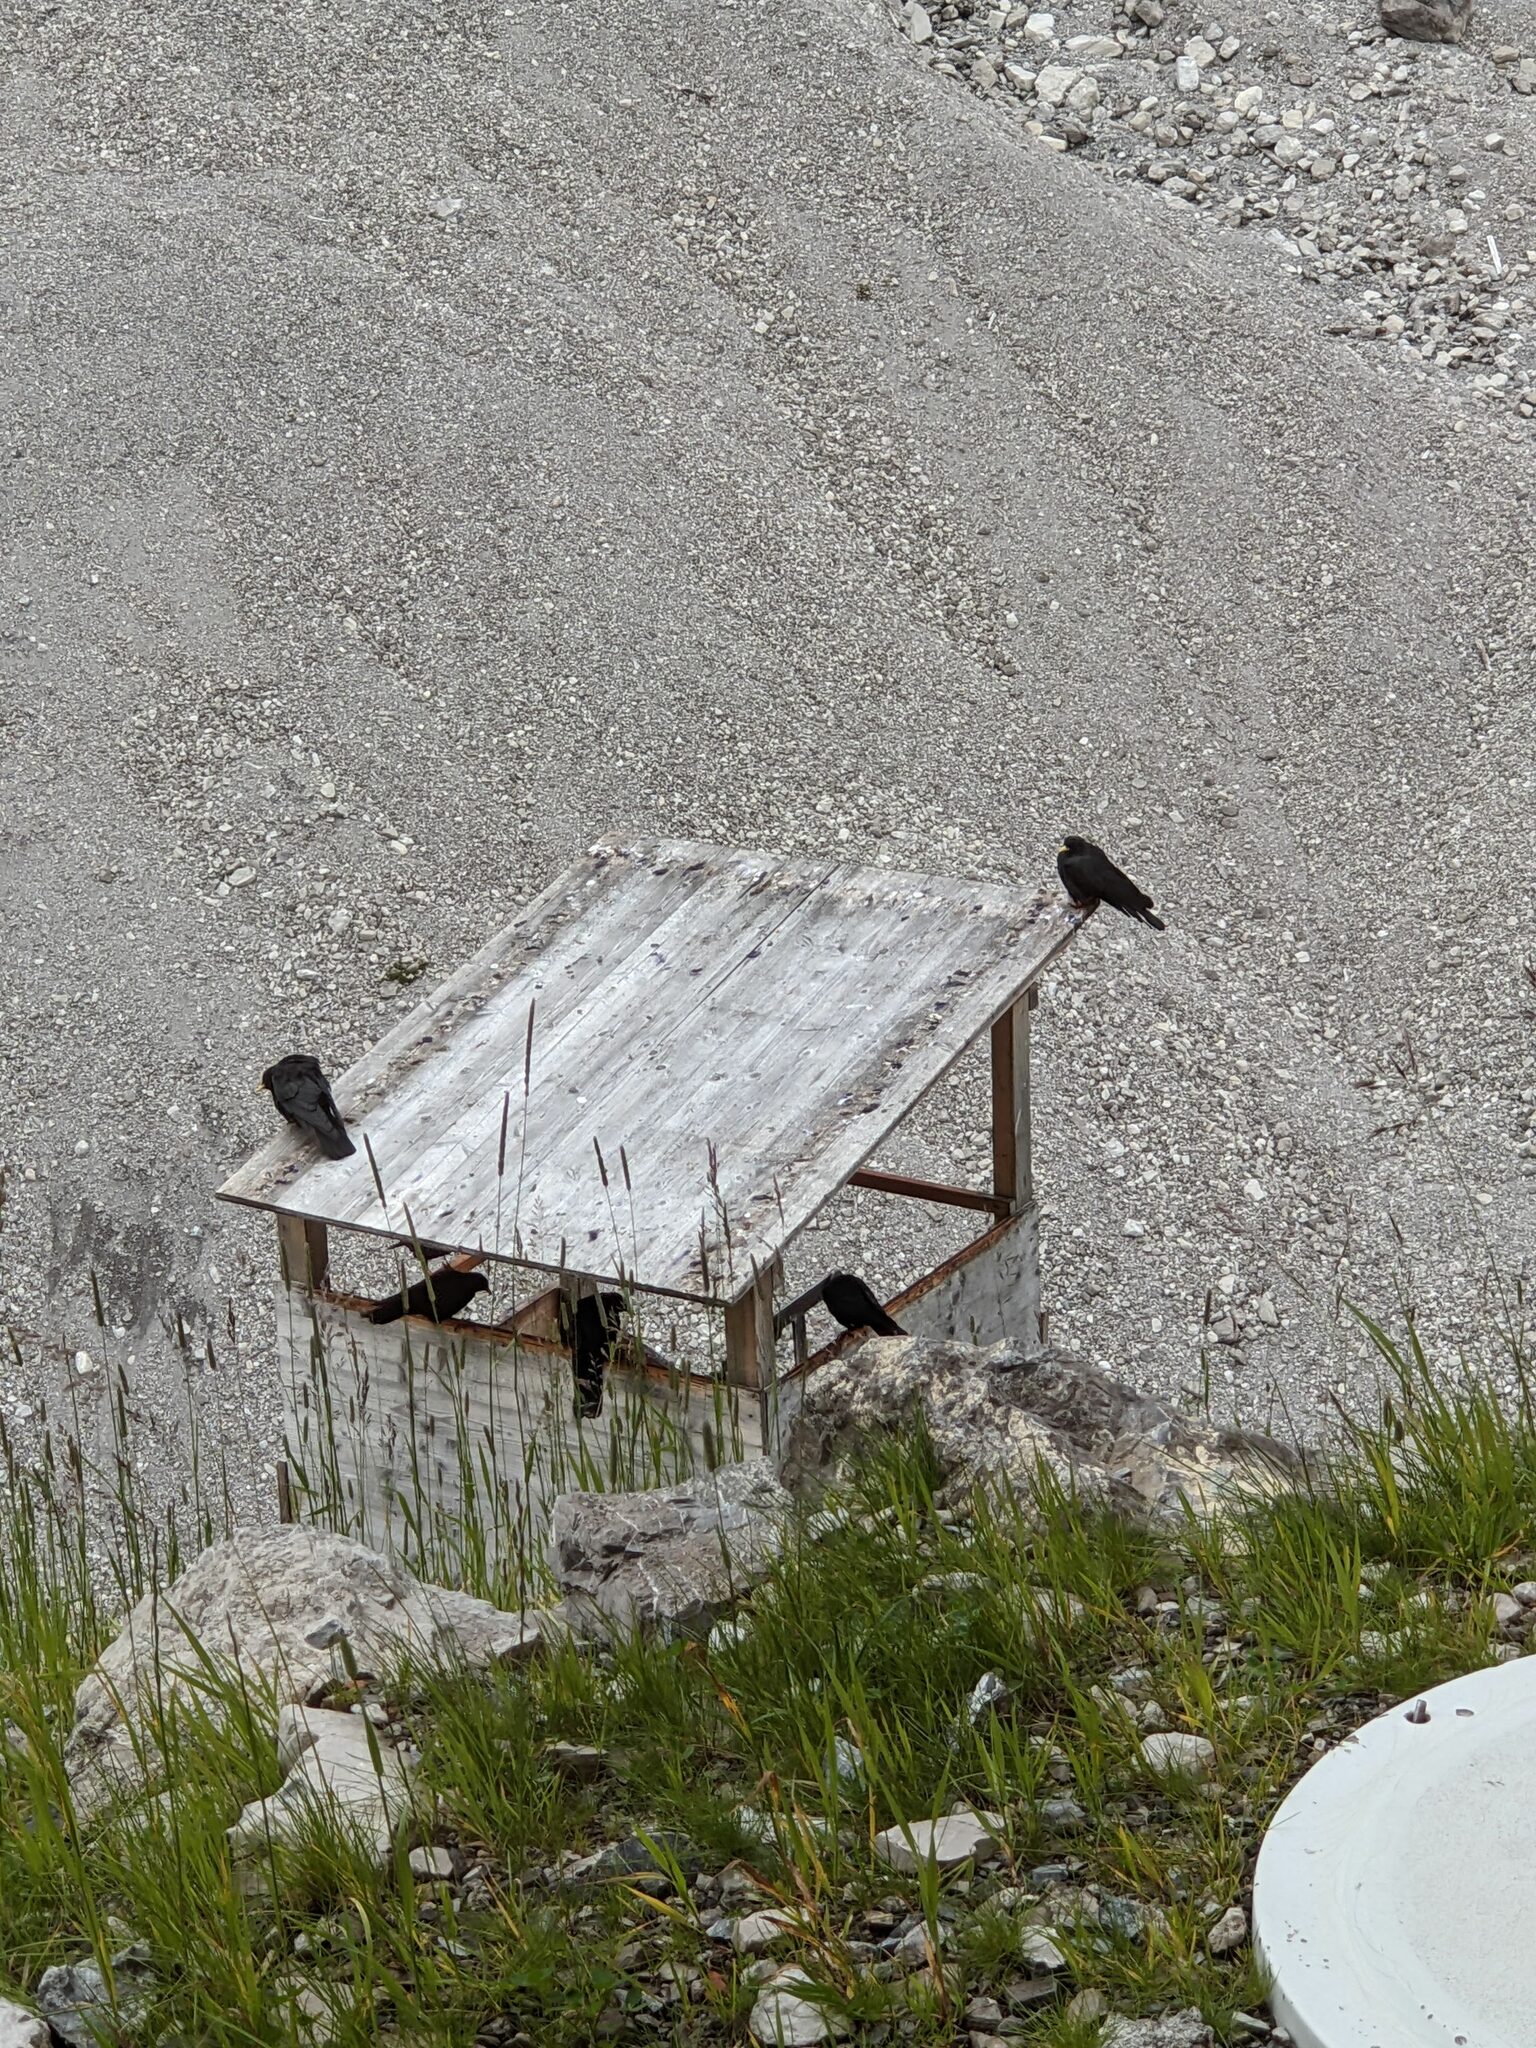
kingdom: Animalia
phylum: Chordata
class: Aves
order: Passeriformes
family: Corvidae
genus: Pyrrhocorax
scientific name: Pyrrhocorax graculus
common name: Alpine chough
